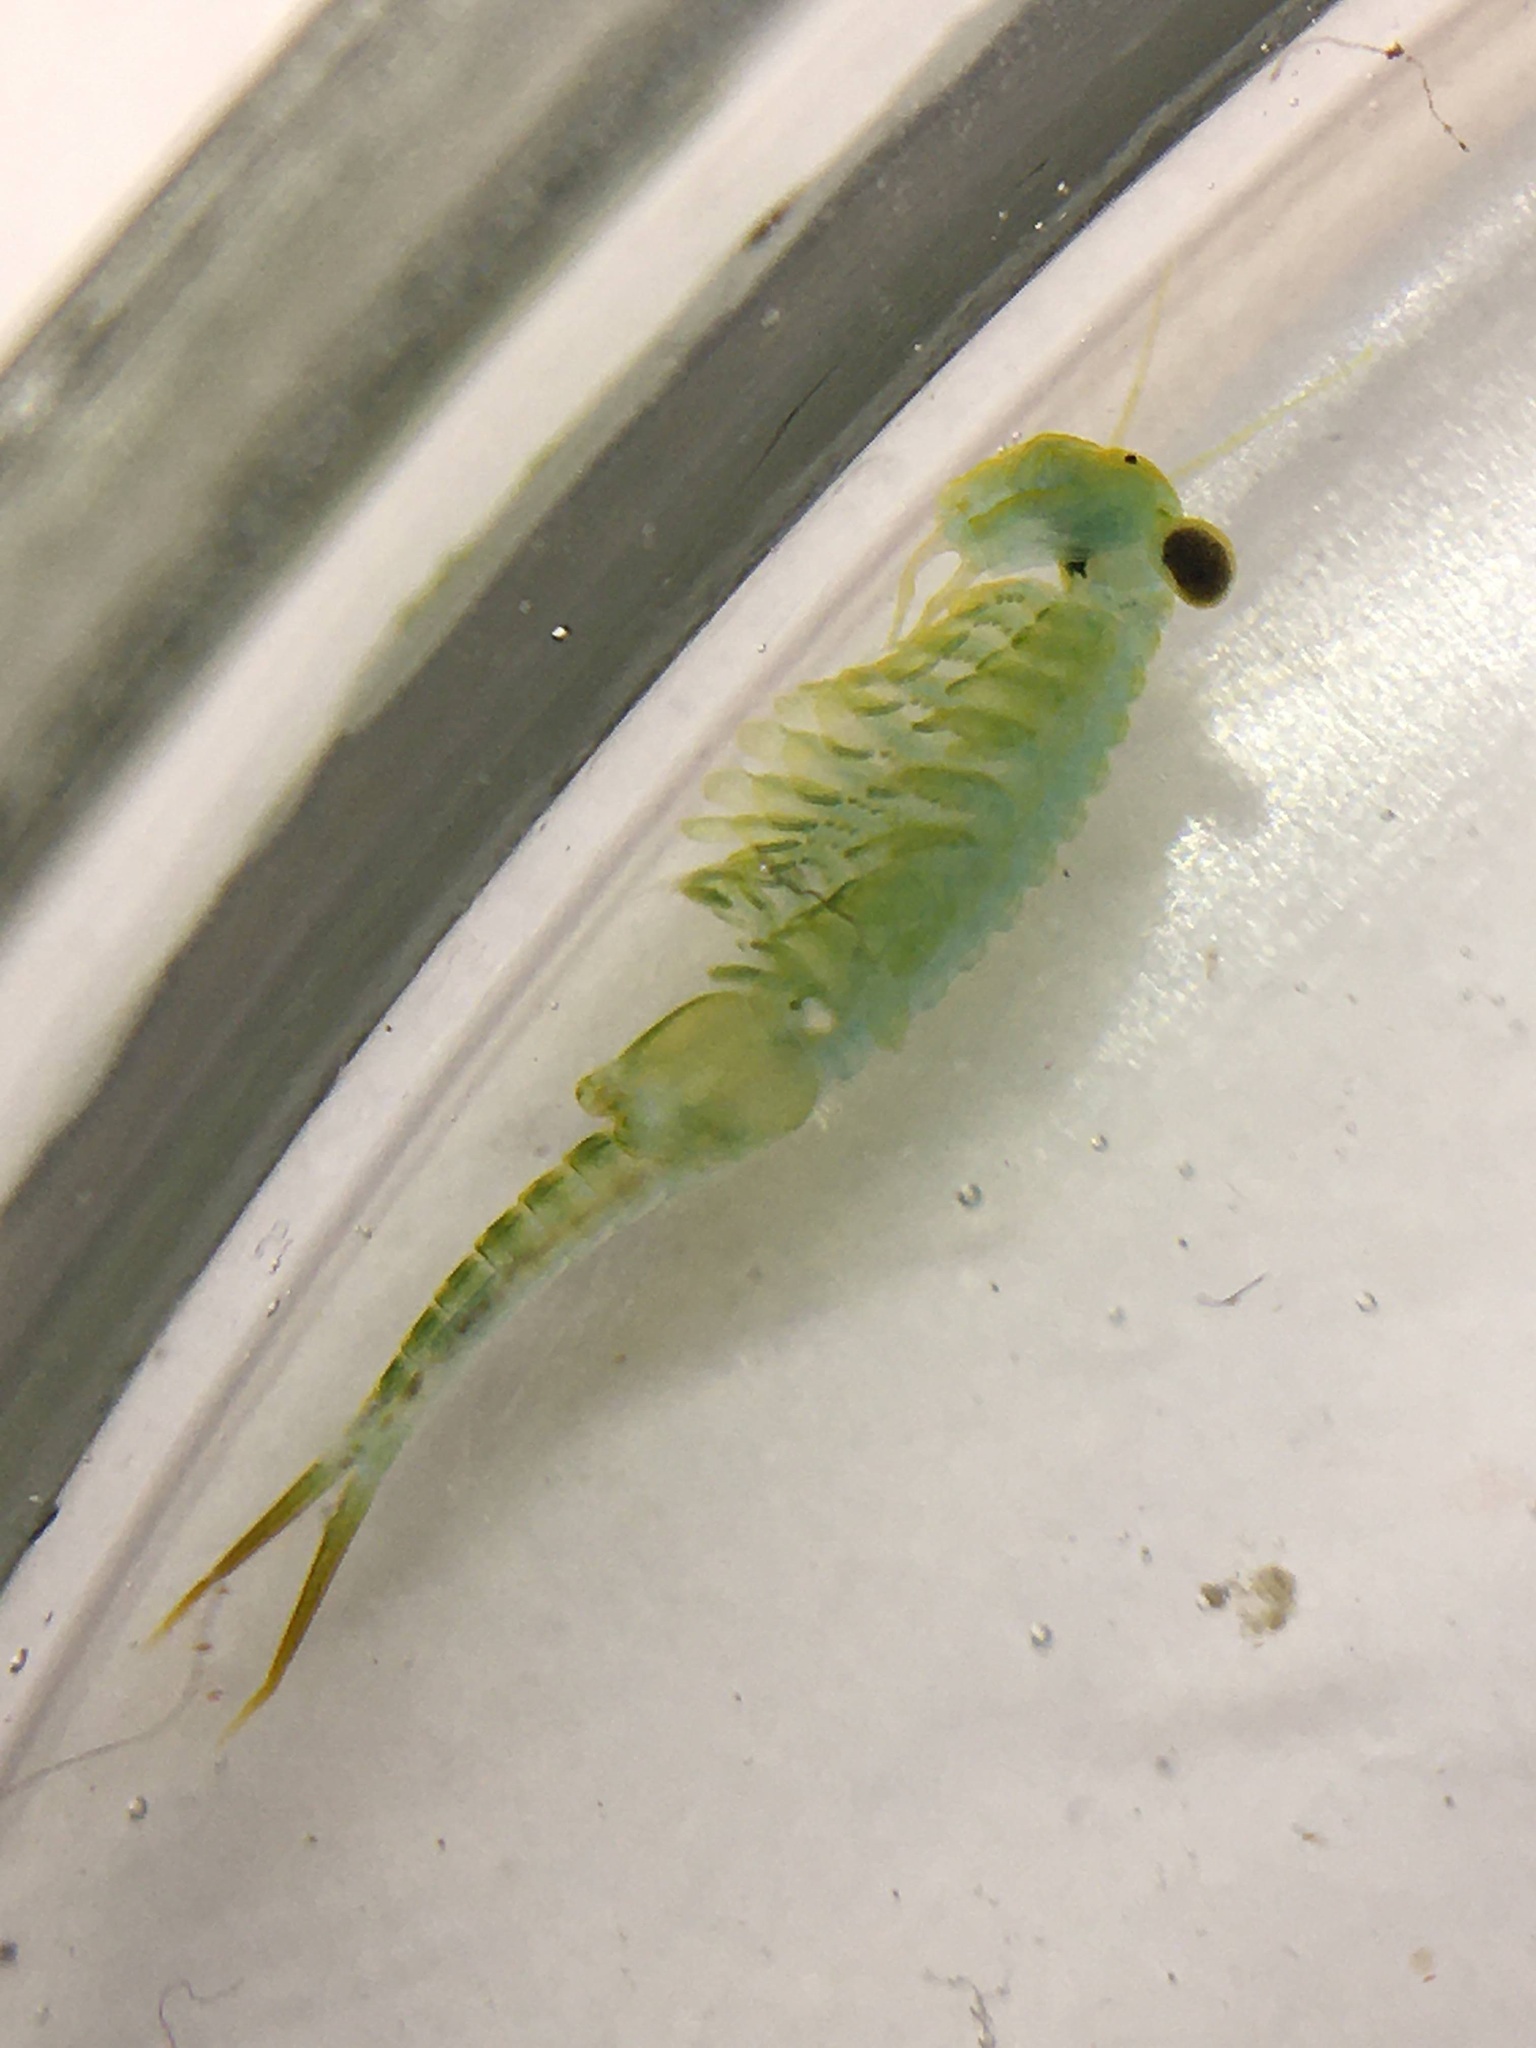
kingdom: Animalia
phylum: Arthropoda
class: Branchiopoda
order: Anostraca
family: Chirocephalidae
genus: Chirocephalus
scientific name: Chirocephalus shadini
